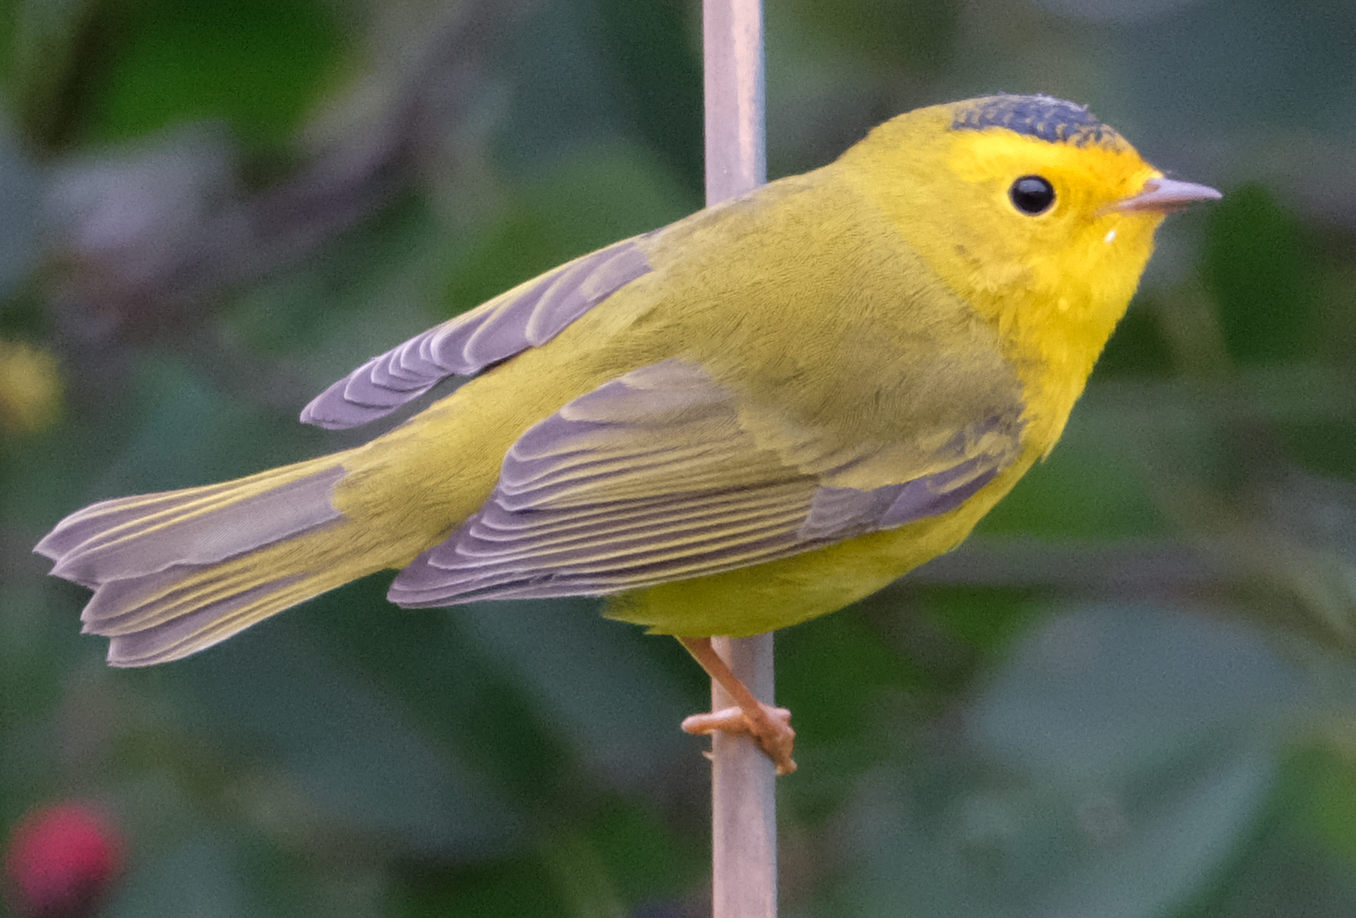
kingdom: Animalia
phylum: Chordata
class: Aves
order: Passeriformes
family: Parulidae
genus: Cardellina
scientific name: Cardellina pusilla
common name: Wilson's warbler
